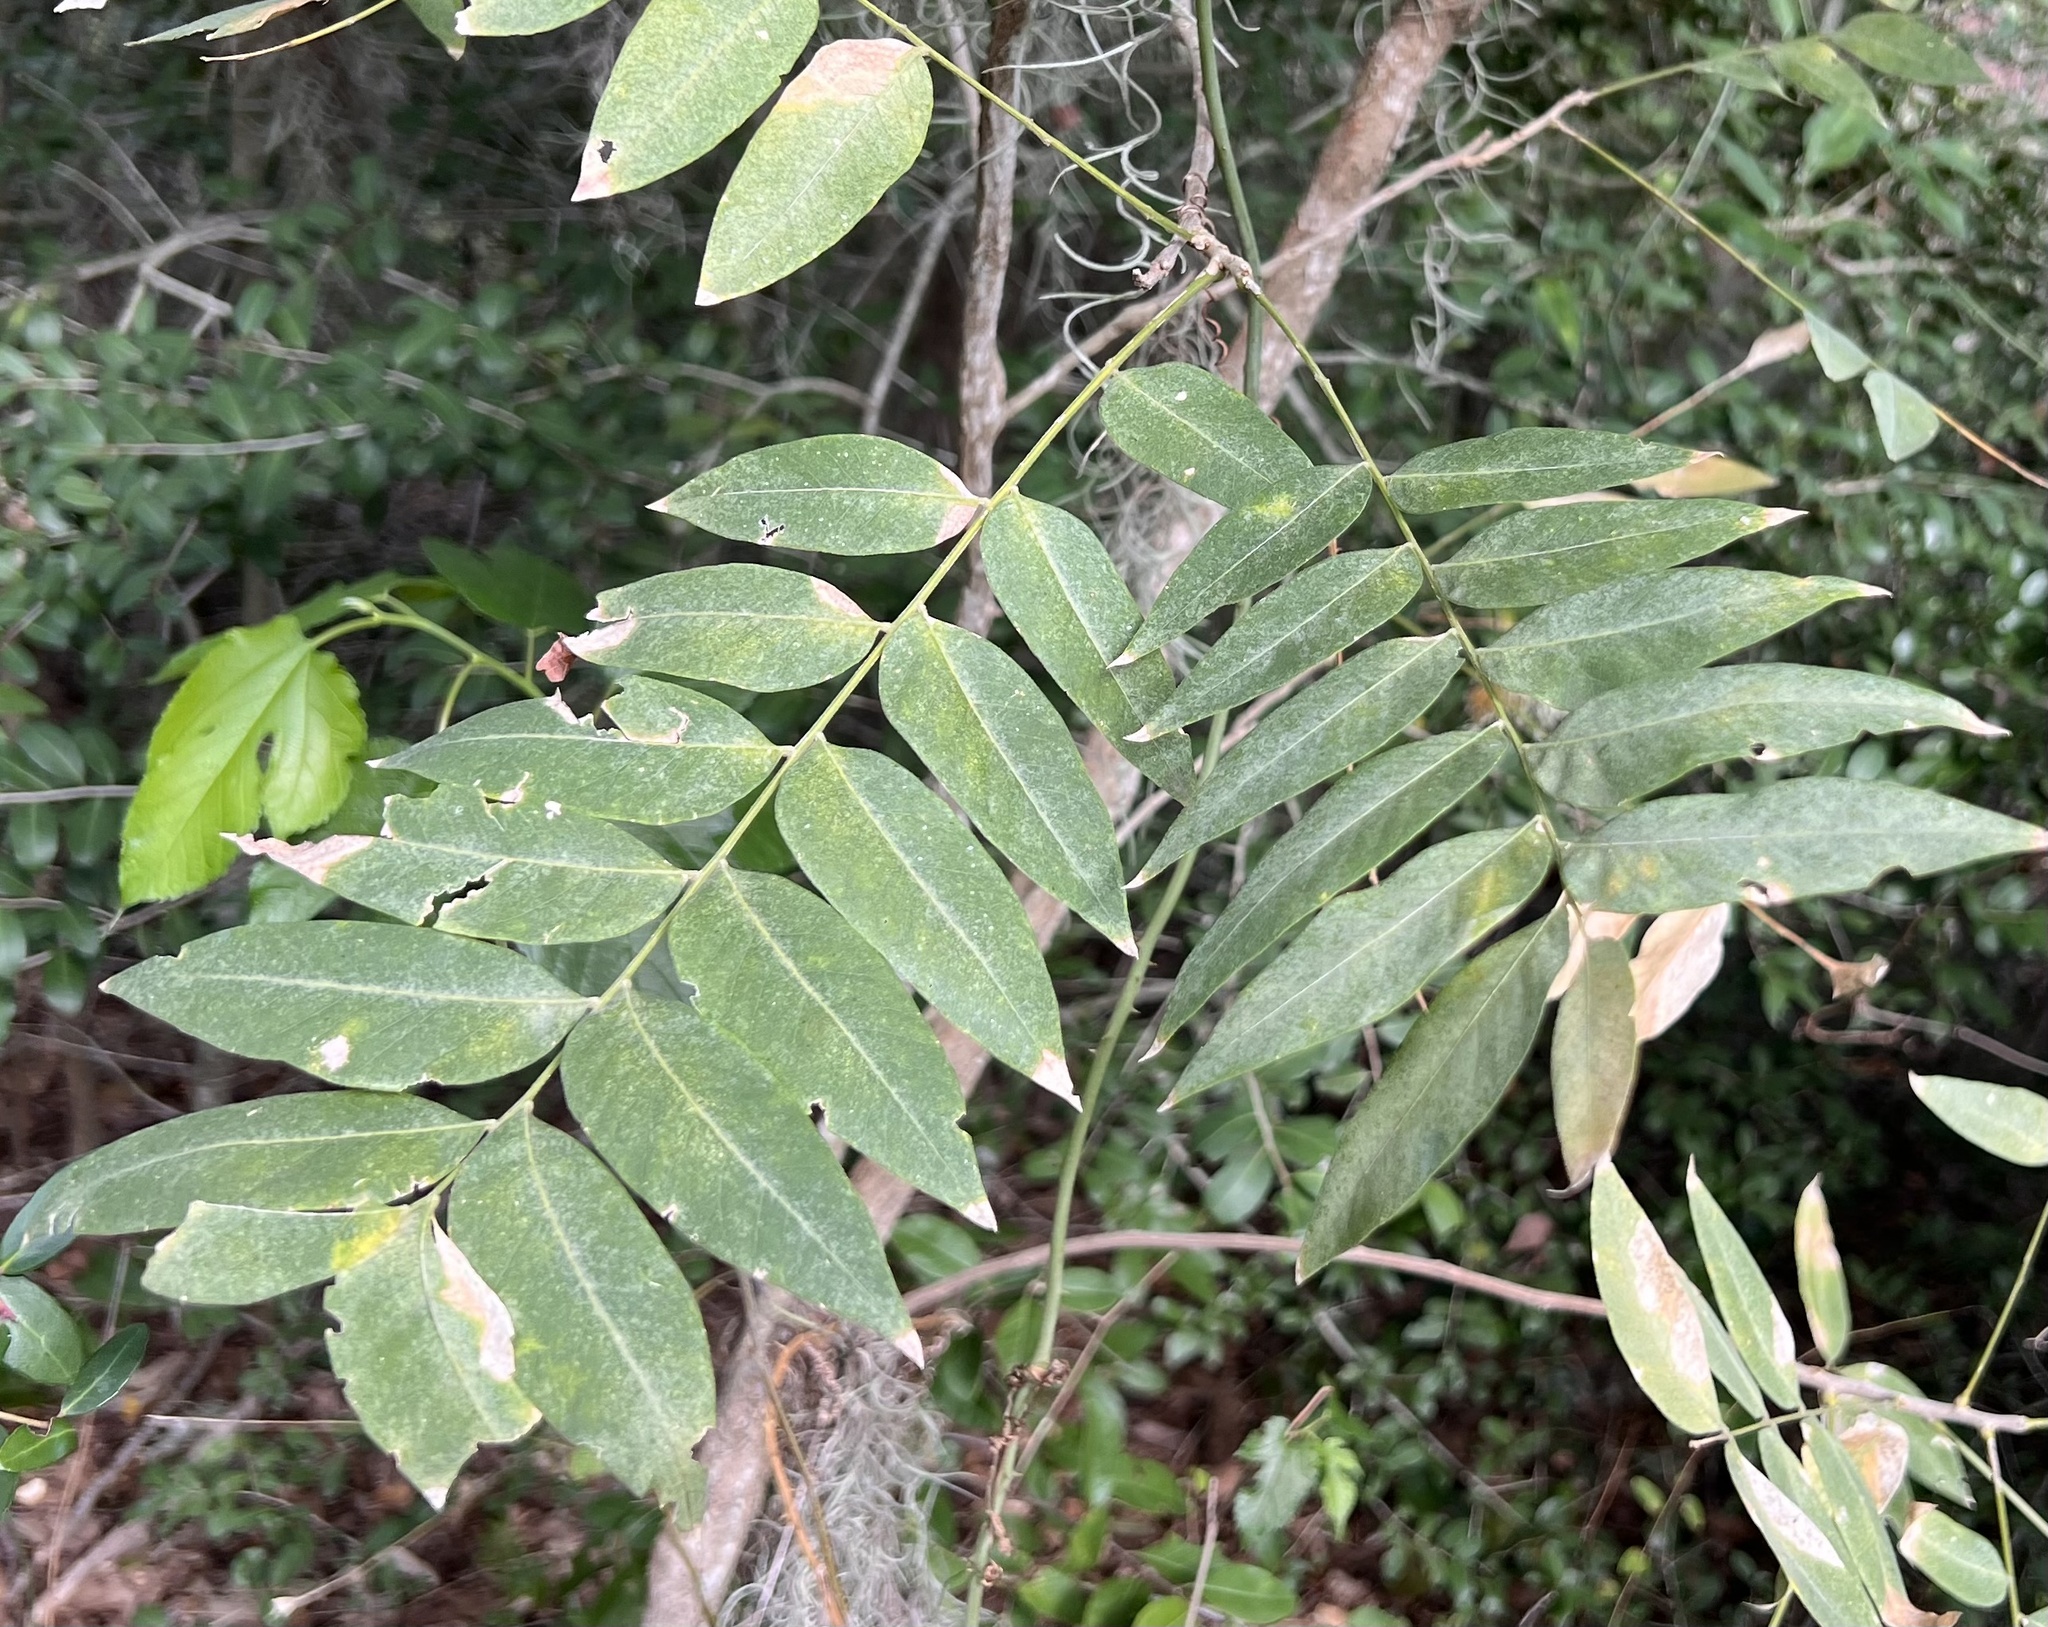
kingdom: Plantae
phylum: Tracheophyta
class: Magnoliopsida
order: Sapindales
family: Sapindaceae
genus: Sapindus
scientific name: Sapindus drummondii
